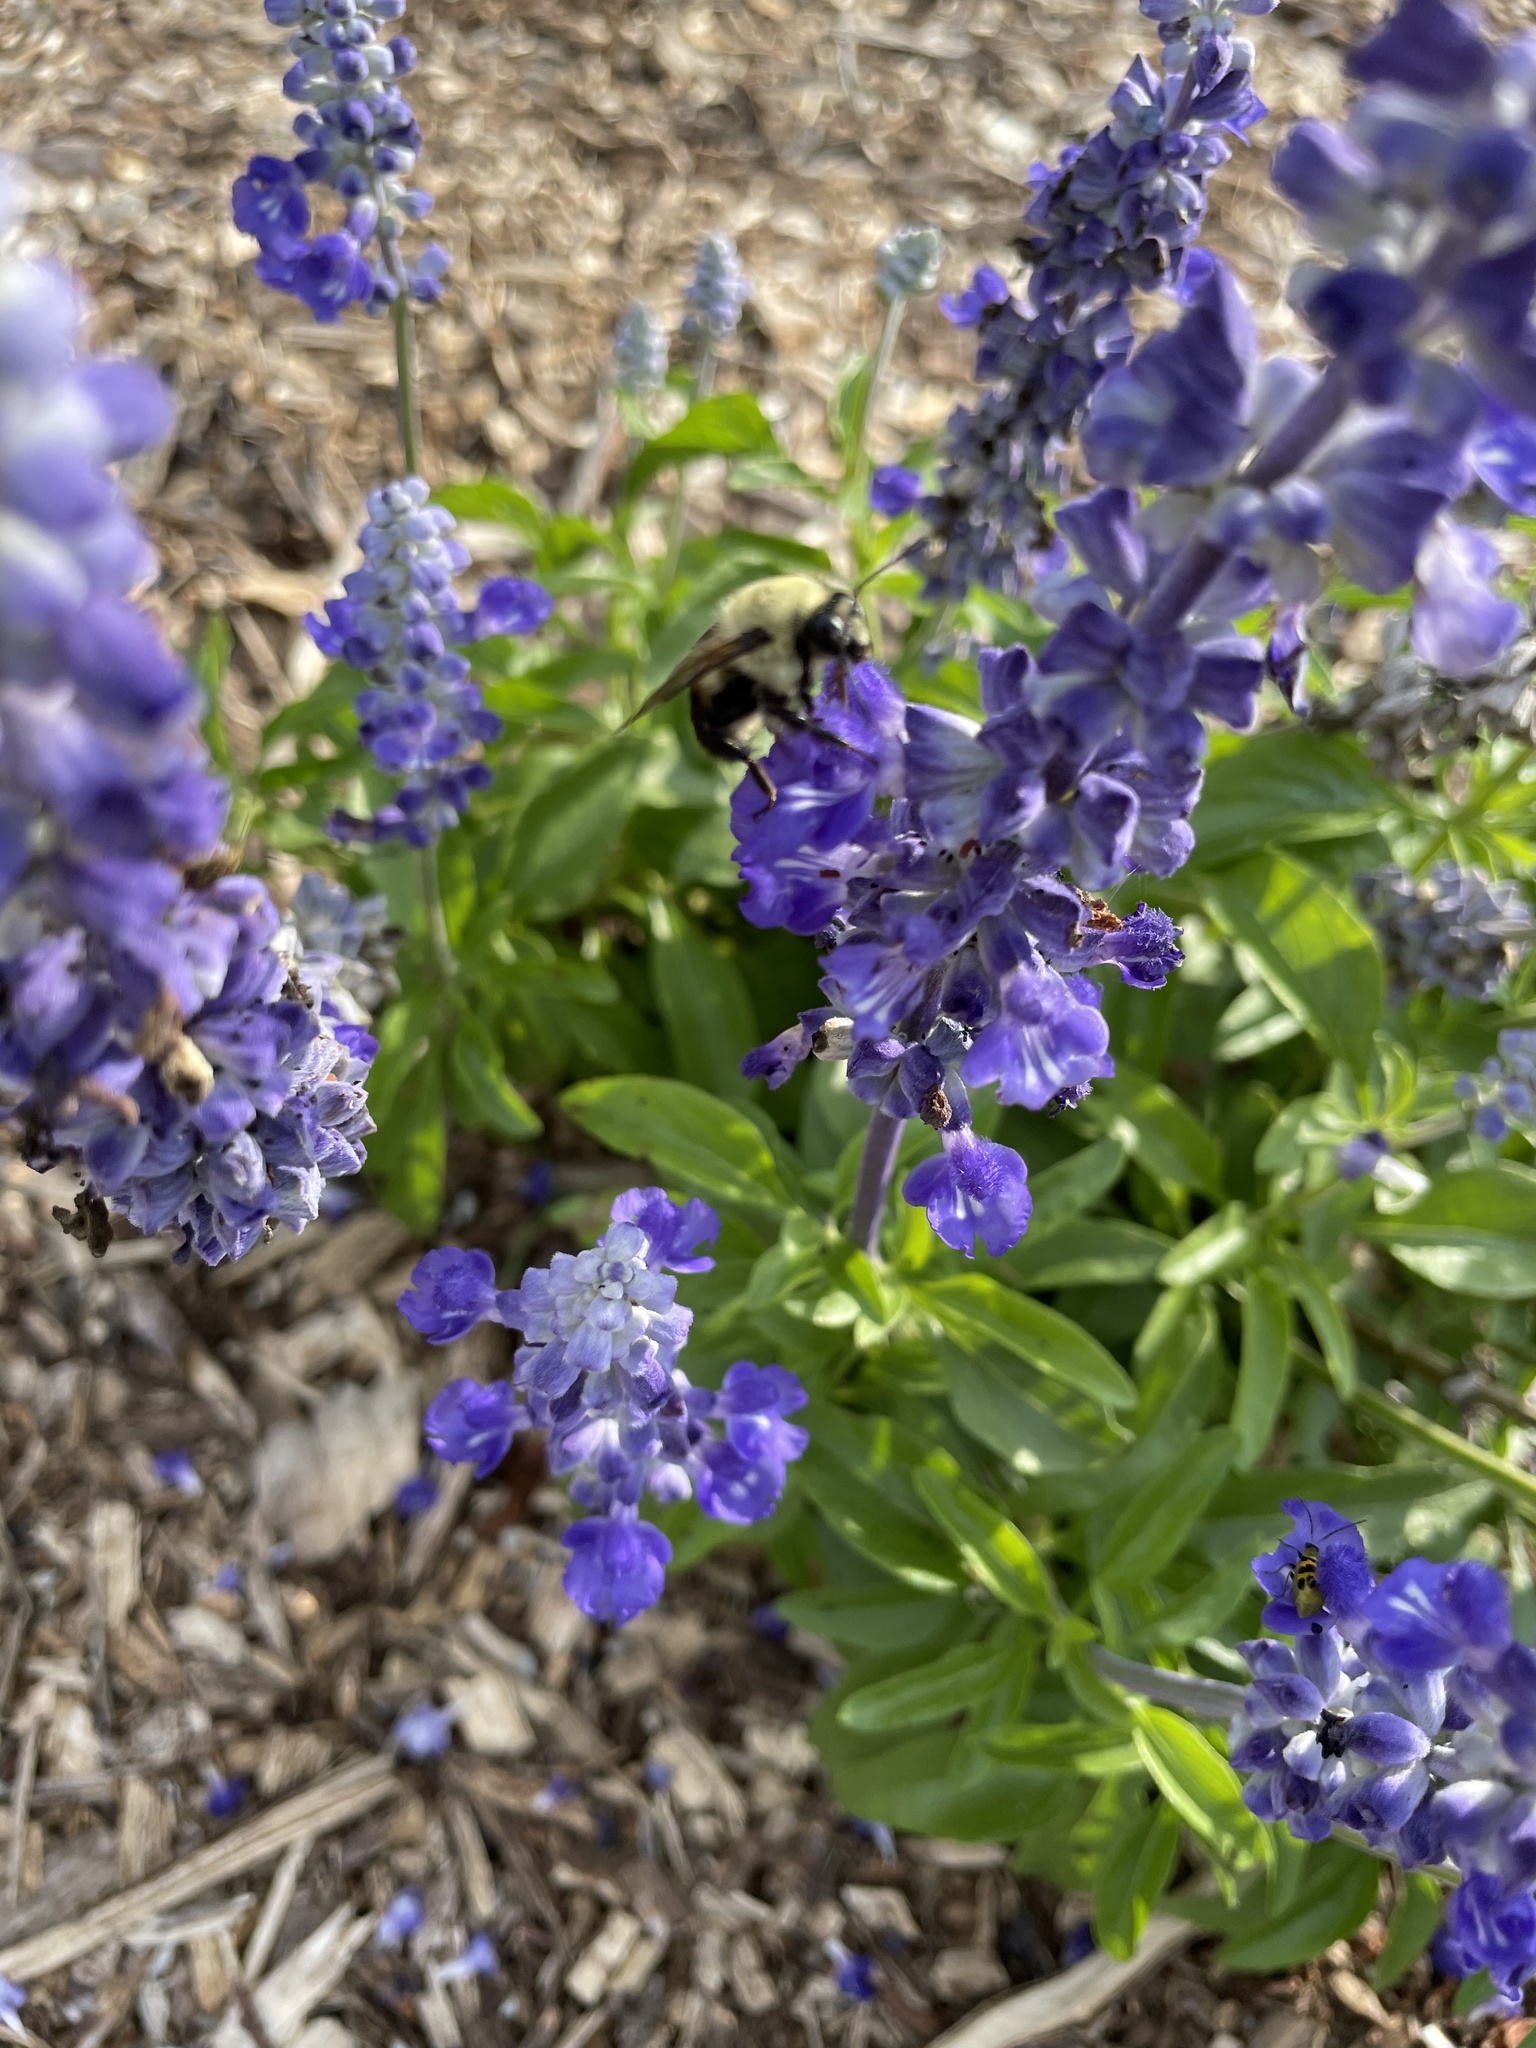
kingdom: Animalia
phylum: Arthropoda
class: Insecta
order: Hymenoptera
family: Apidae
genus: Bombus
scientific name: Bombus griseocollis
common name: Brown-belted bumble bee
